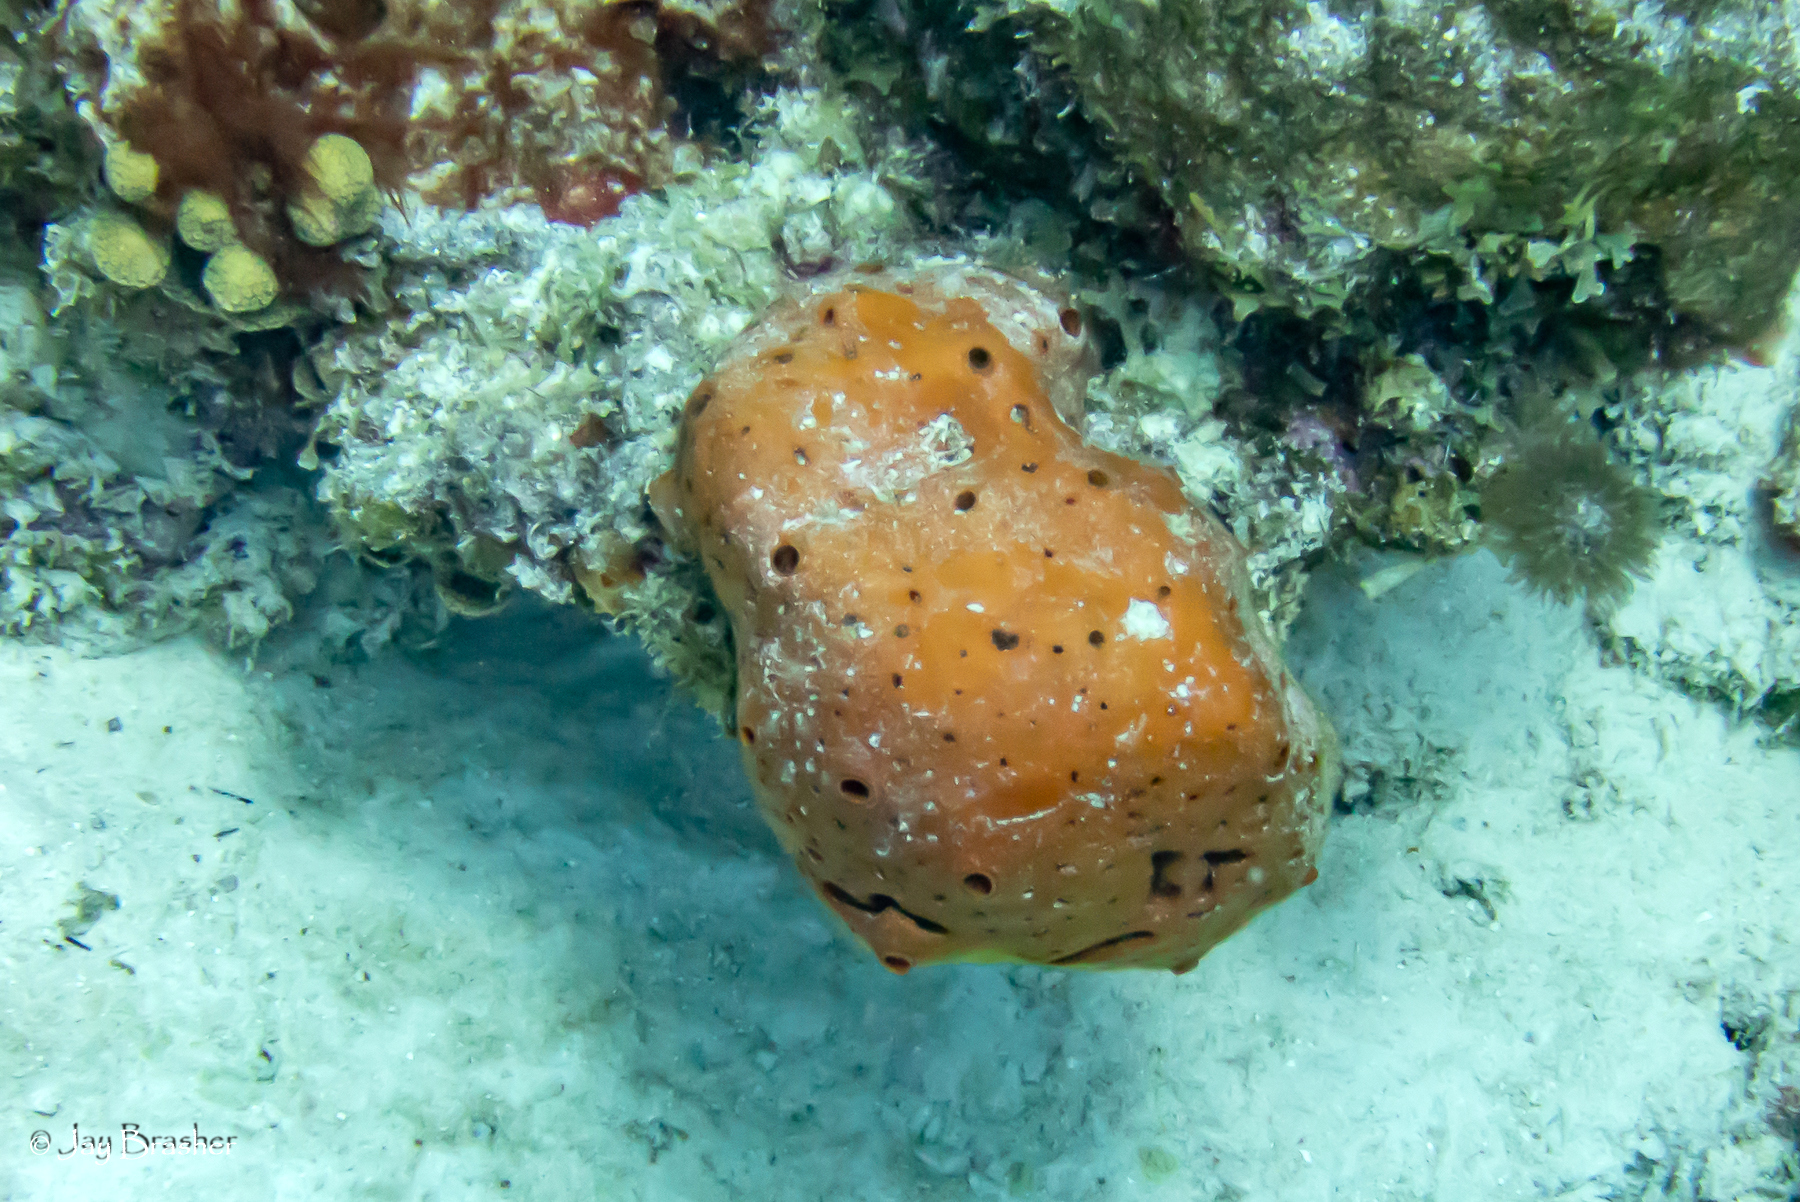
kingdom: Animalia
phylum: Porifera
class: Demospongiae
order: Agelasida
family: Agelasidae
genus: Agelas
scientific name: Agelas sventres
